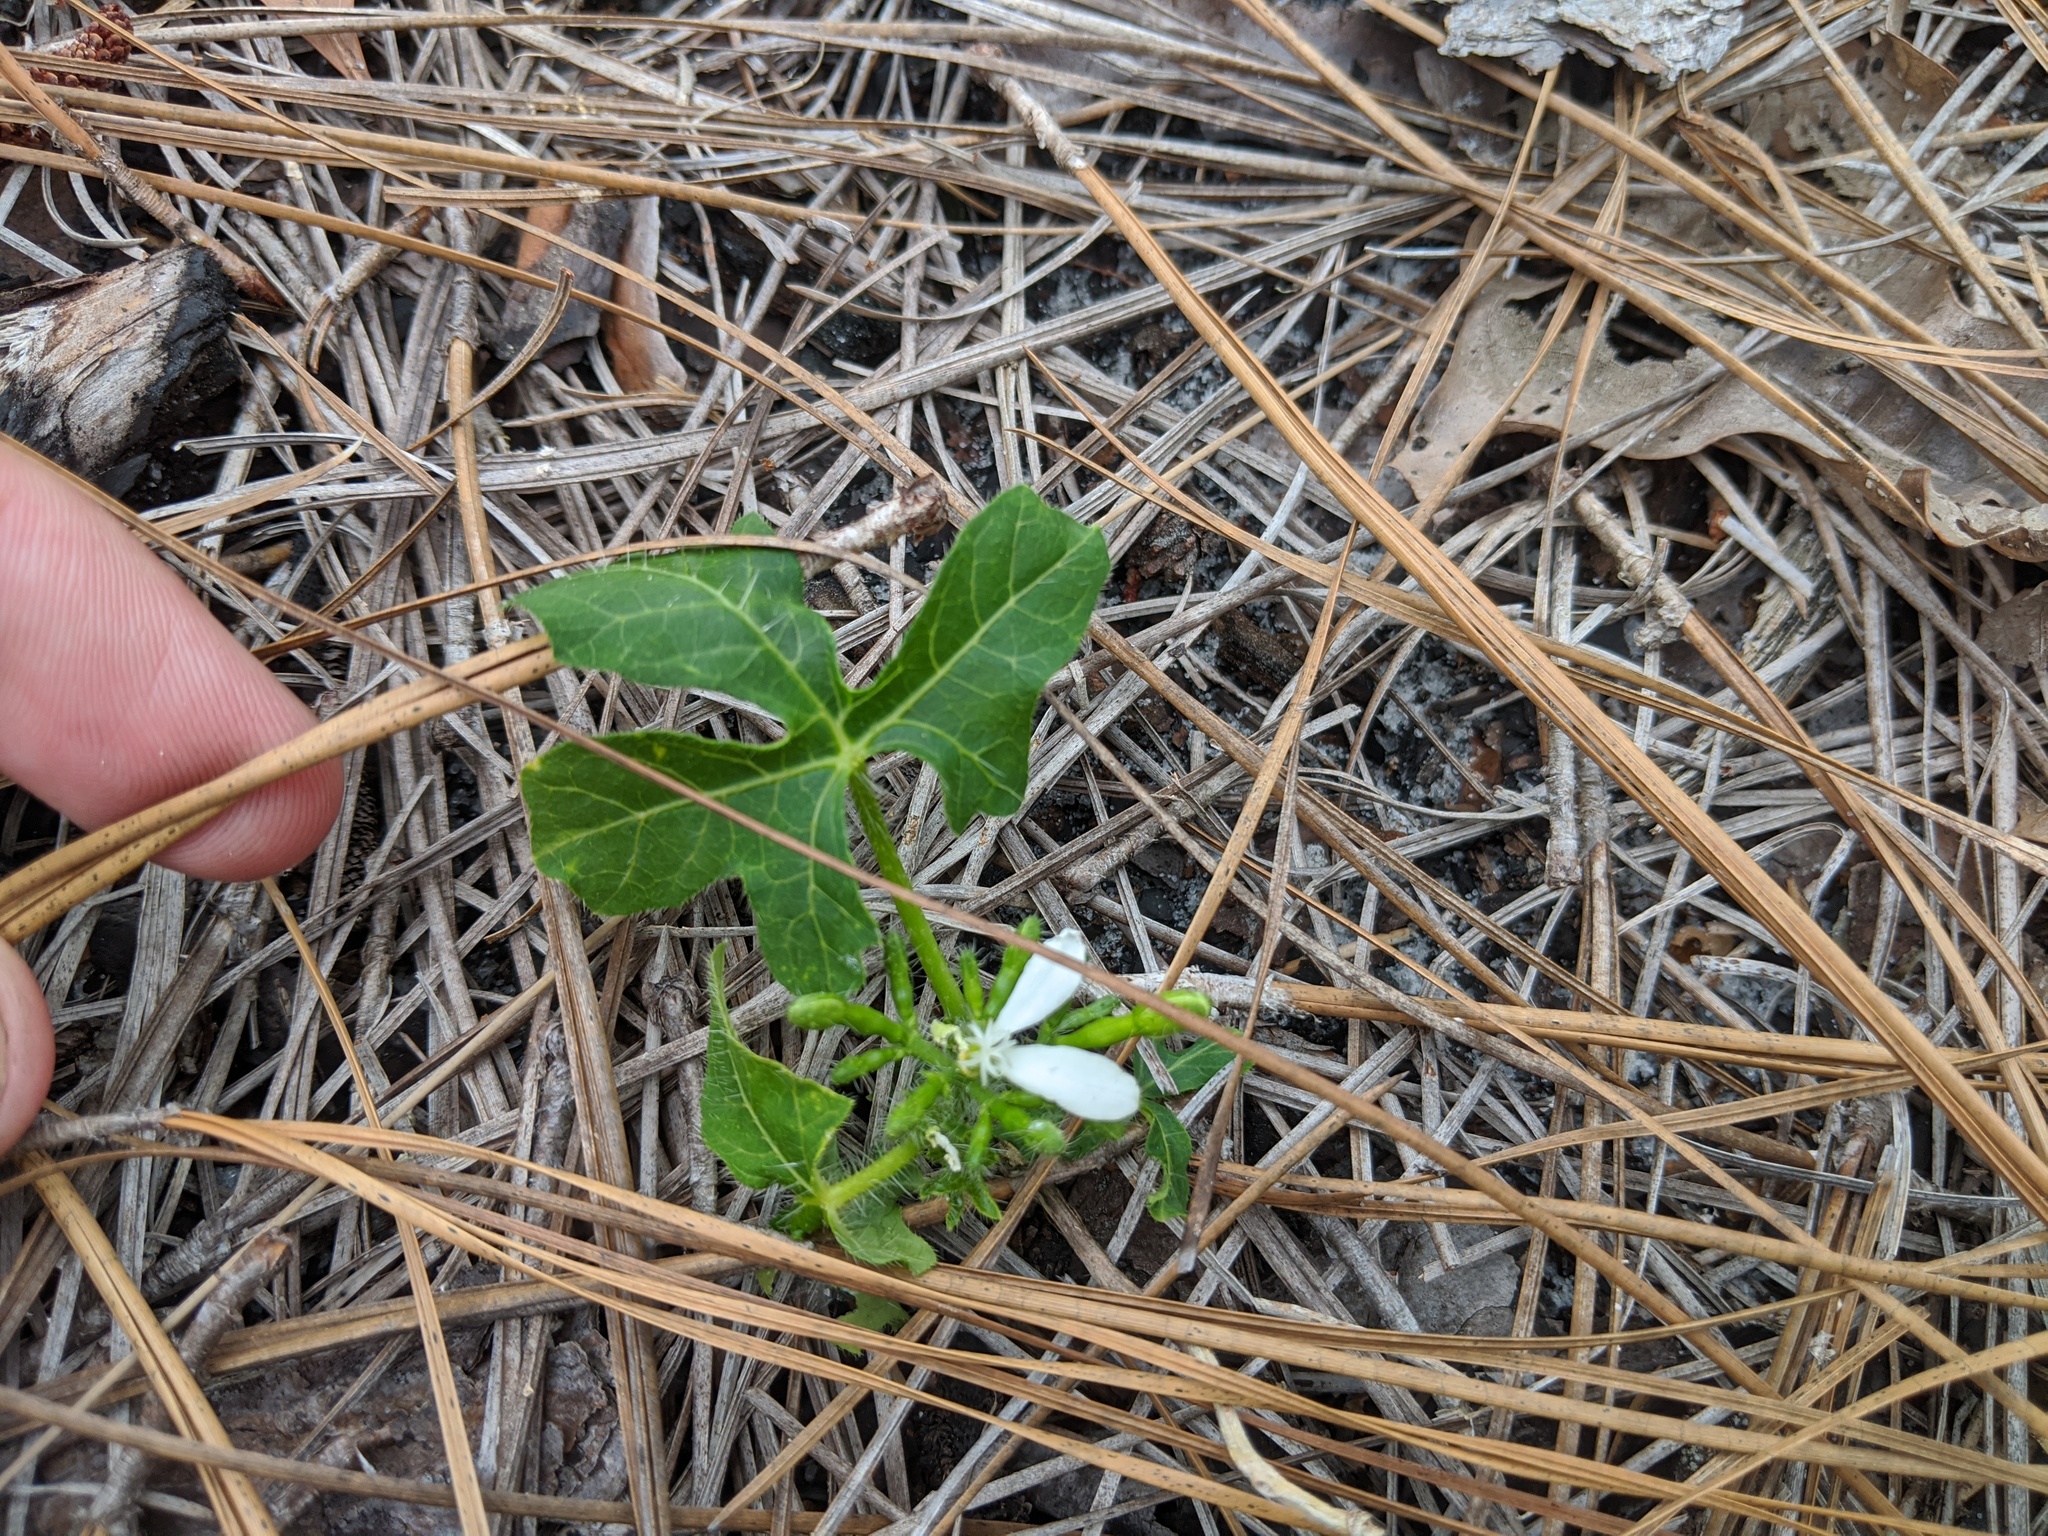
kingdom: Plantae
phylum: Tracheophyta
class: Magnoliopsida
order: Malpighiales
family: Euphorbiaceae
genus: Cnidoscolus
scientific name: Cnidoscolus stimulosus
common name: Bull-nettle
